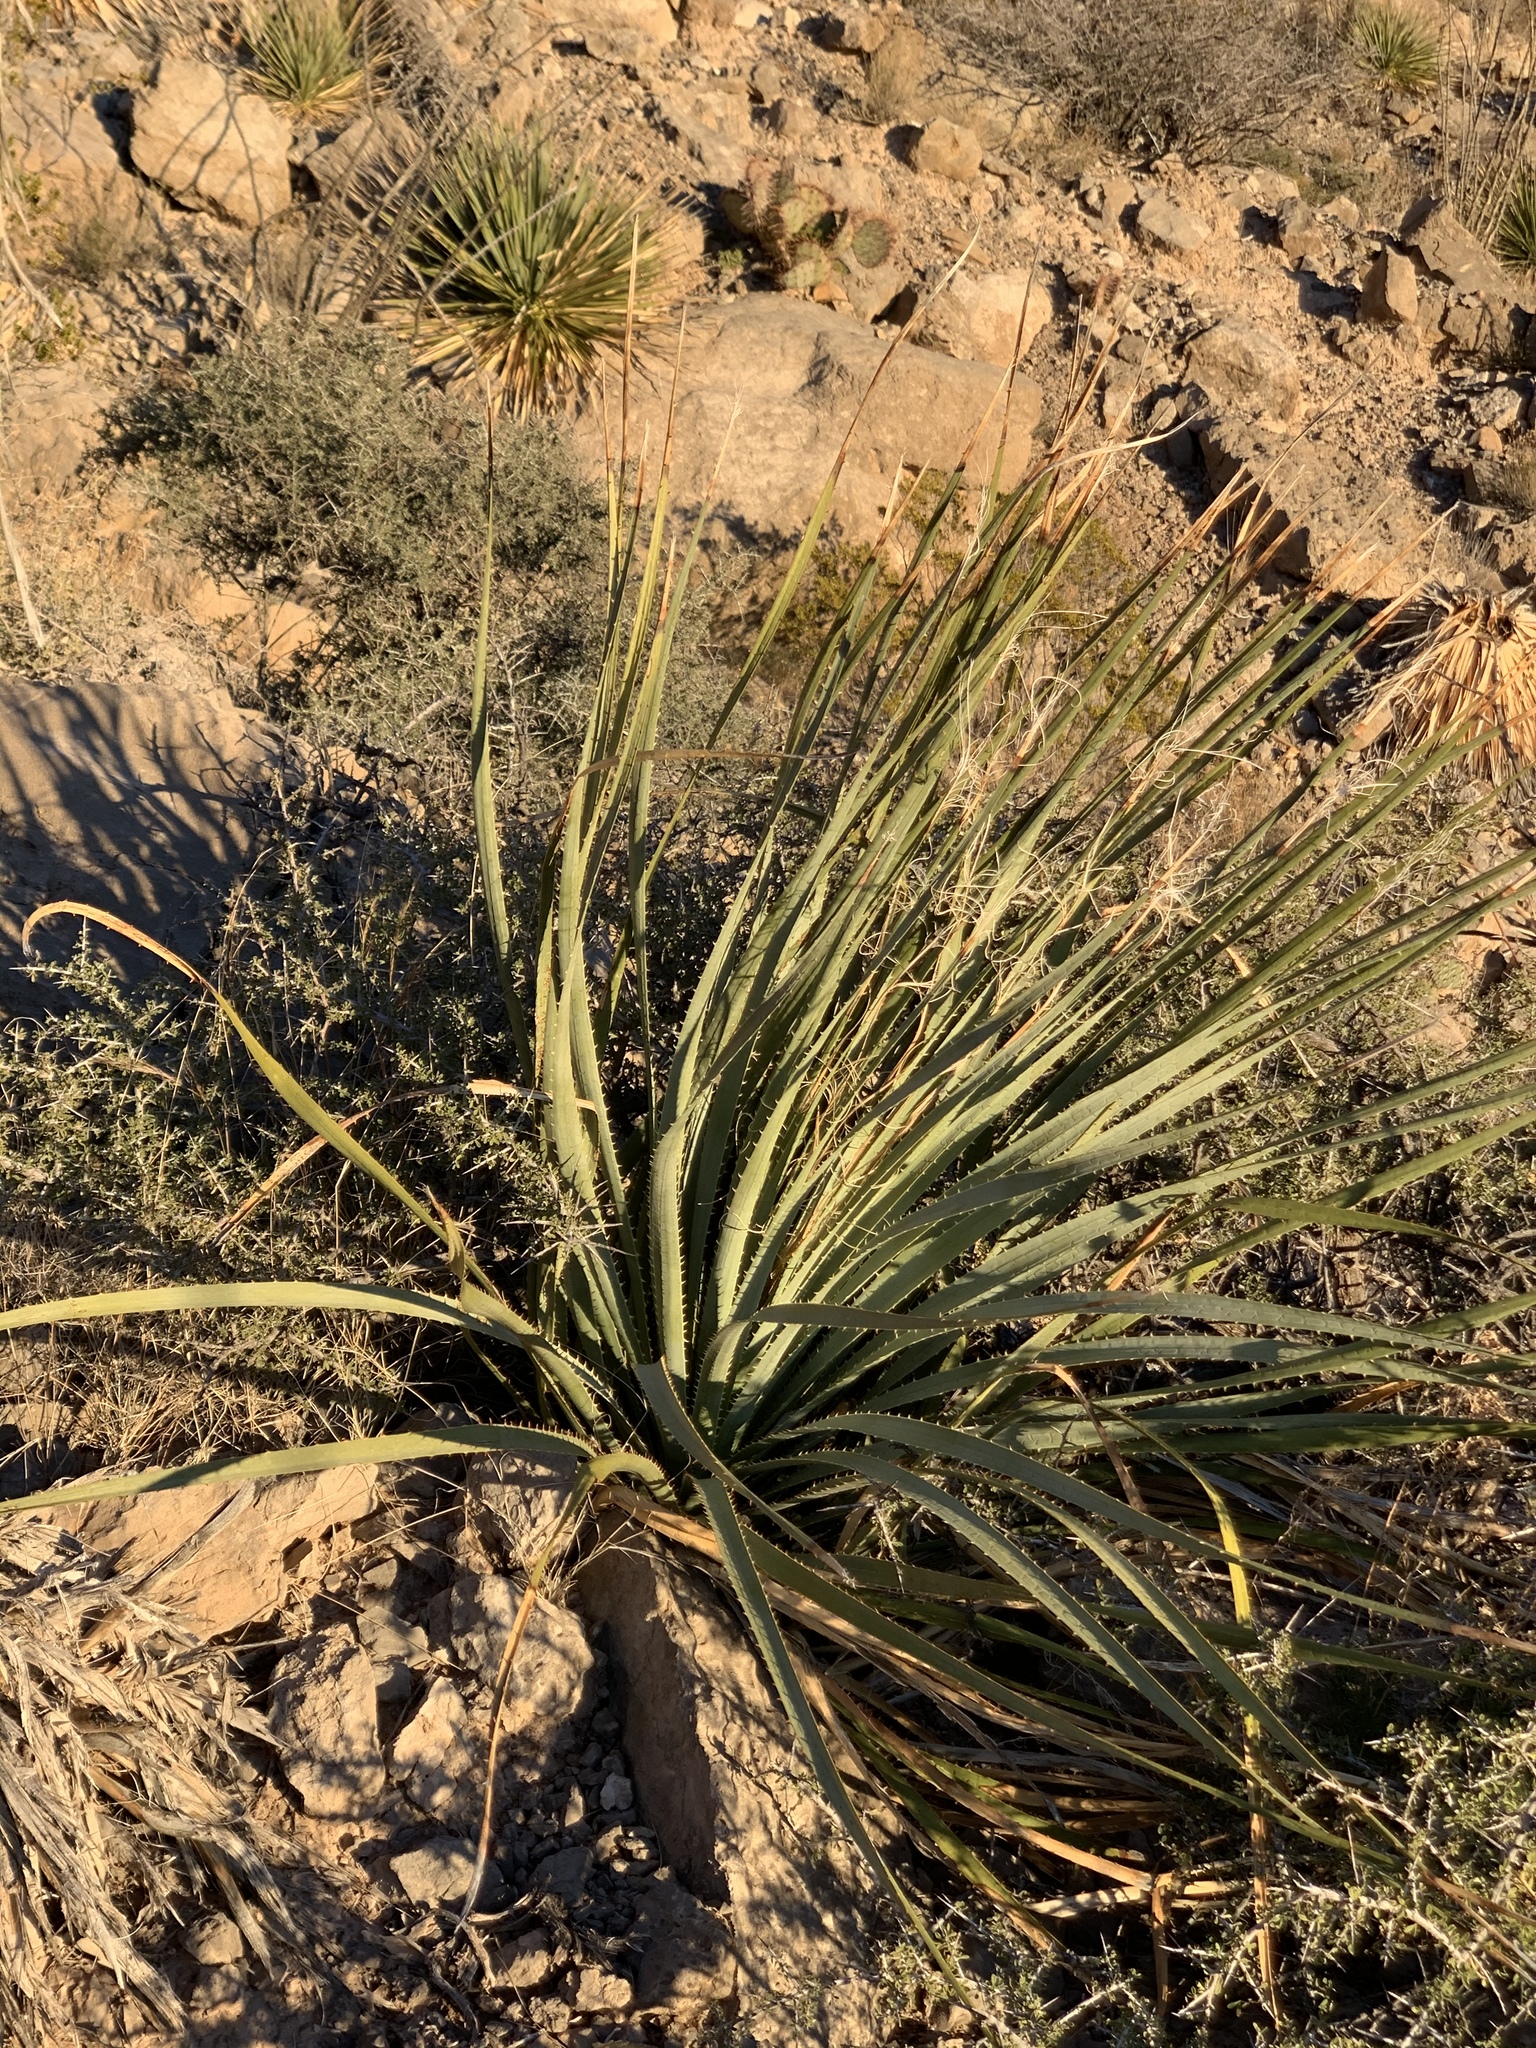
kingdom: Plantae
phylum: Tracheophyta
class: Liliopsida
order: Asparagales
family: Asparagaceae
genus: Dasylirion
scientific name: Dasylirion wheeleri
